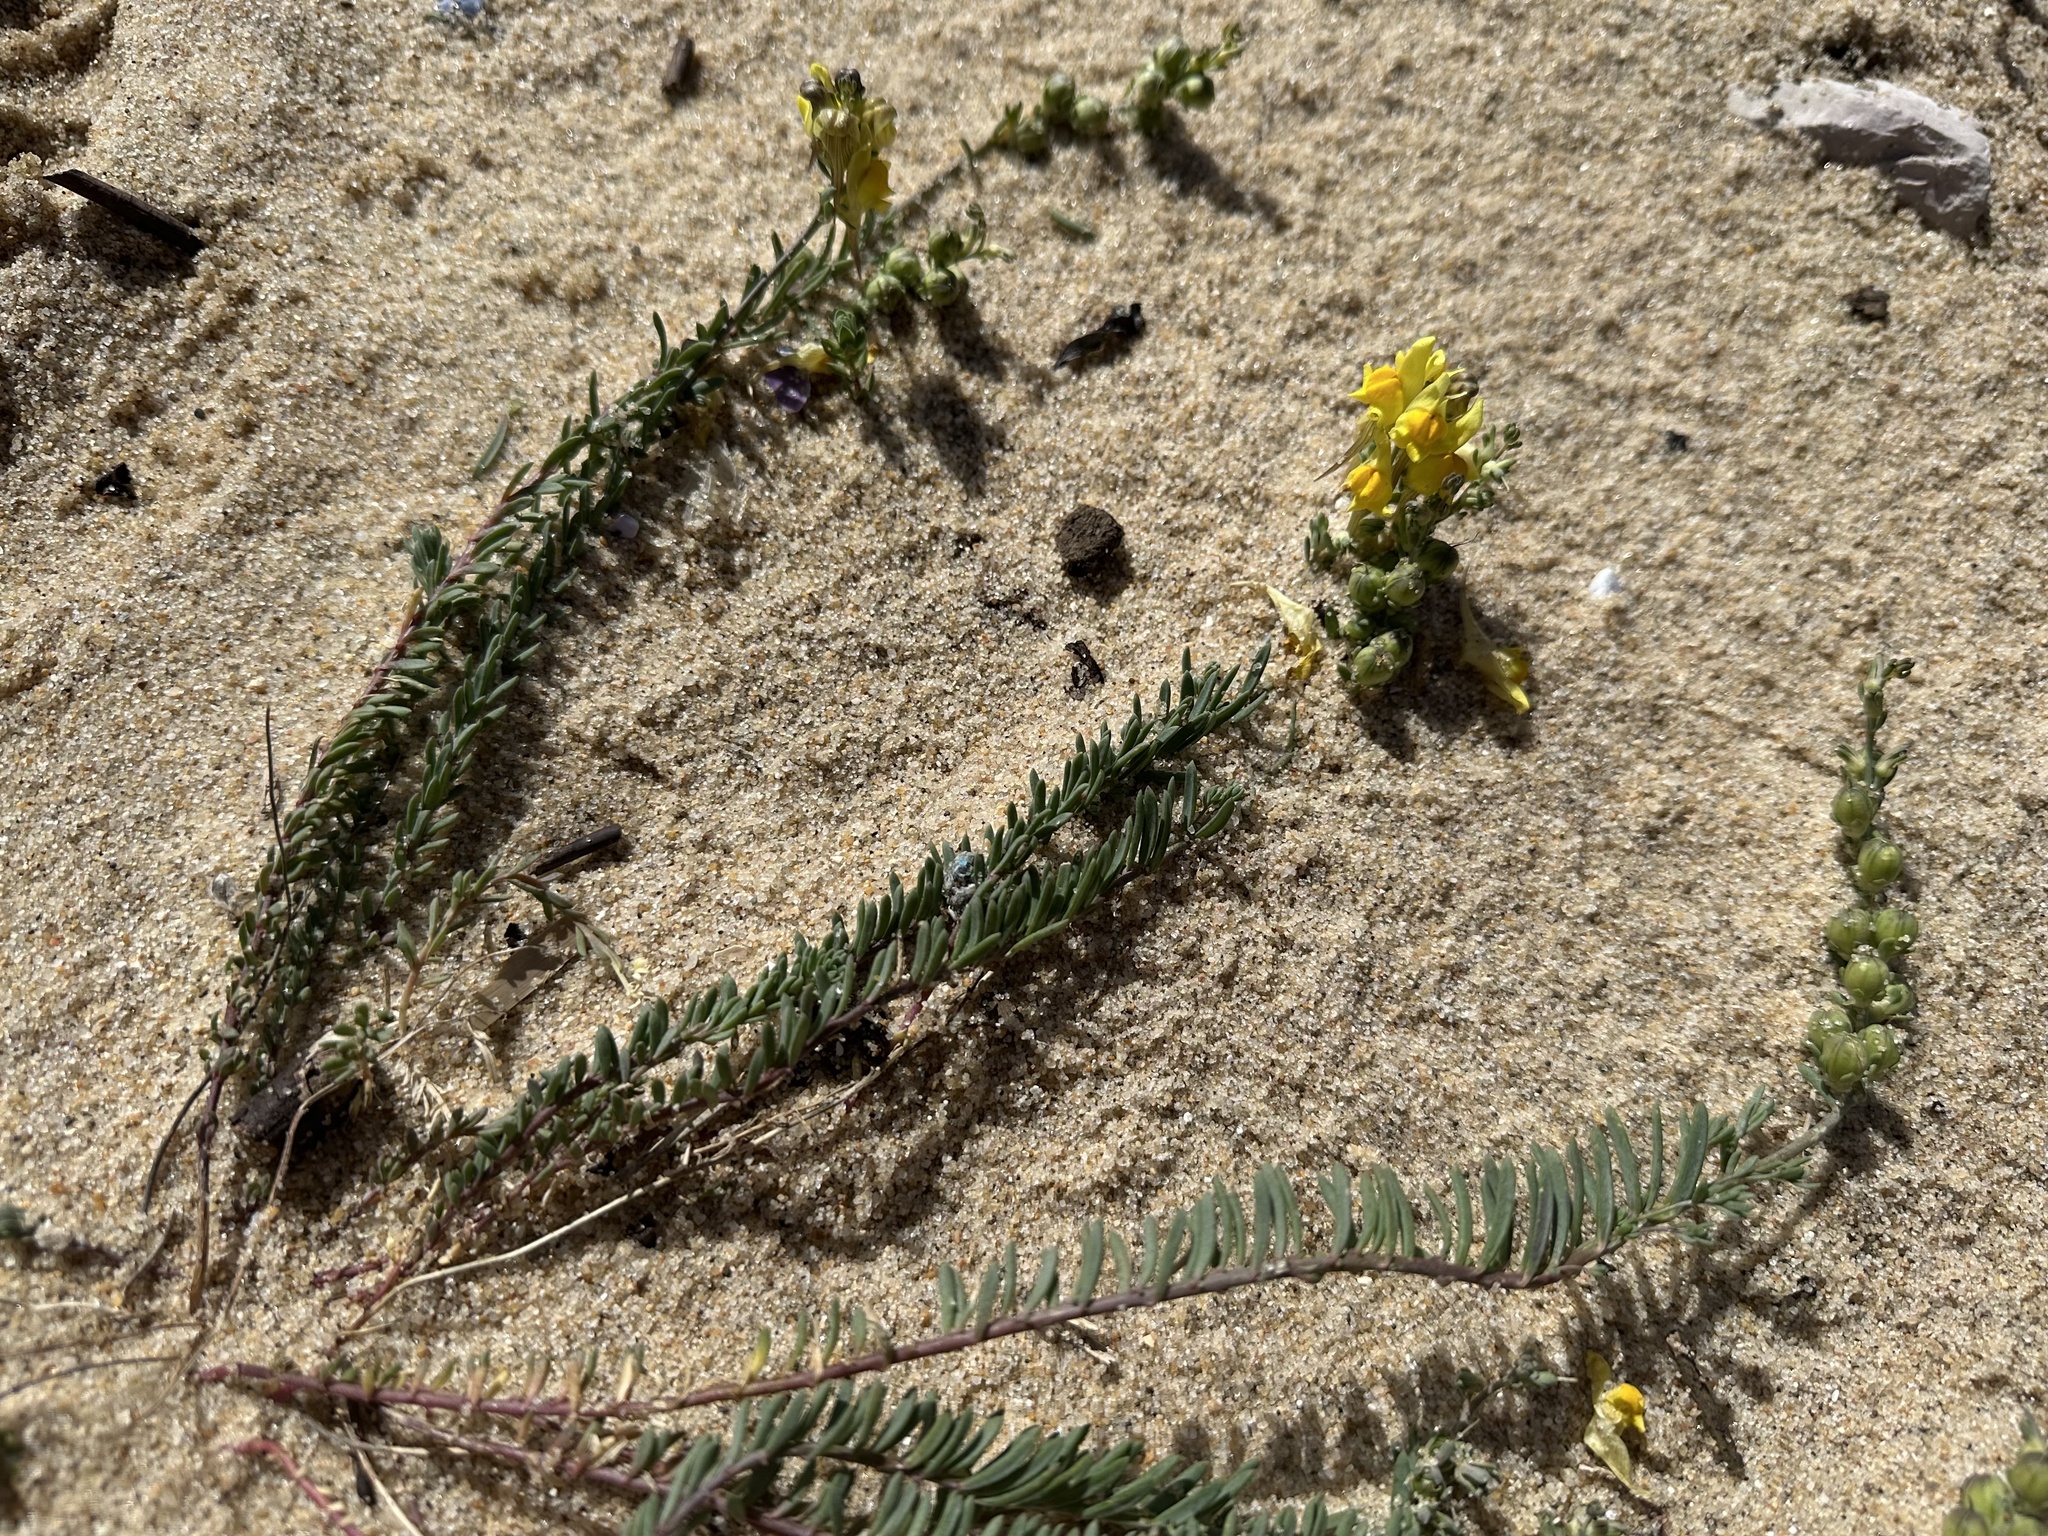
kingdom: Plantae
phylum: Tracheophyta
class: Magnoliopsida
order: Lamiales
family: Plantaginaceae
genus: Linaria
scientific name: Linaria polygalifolia
